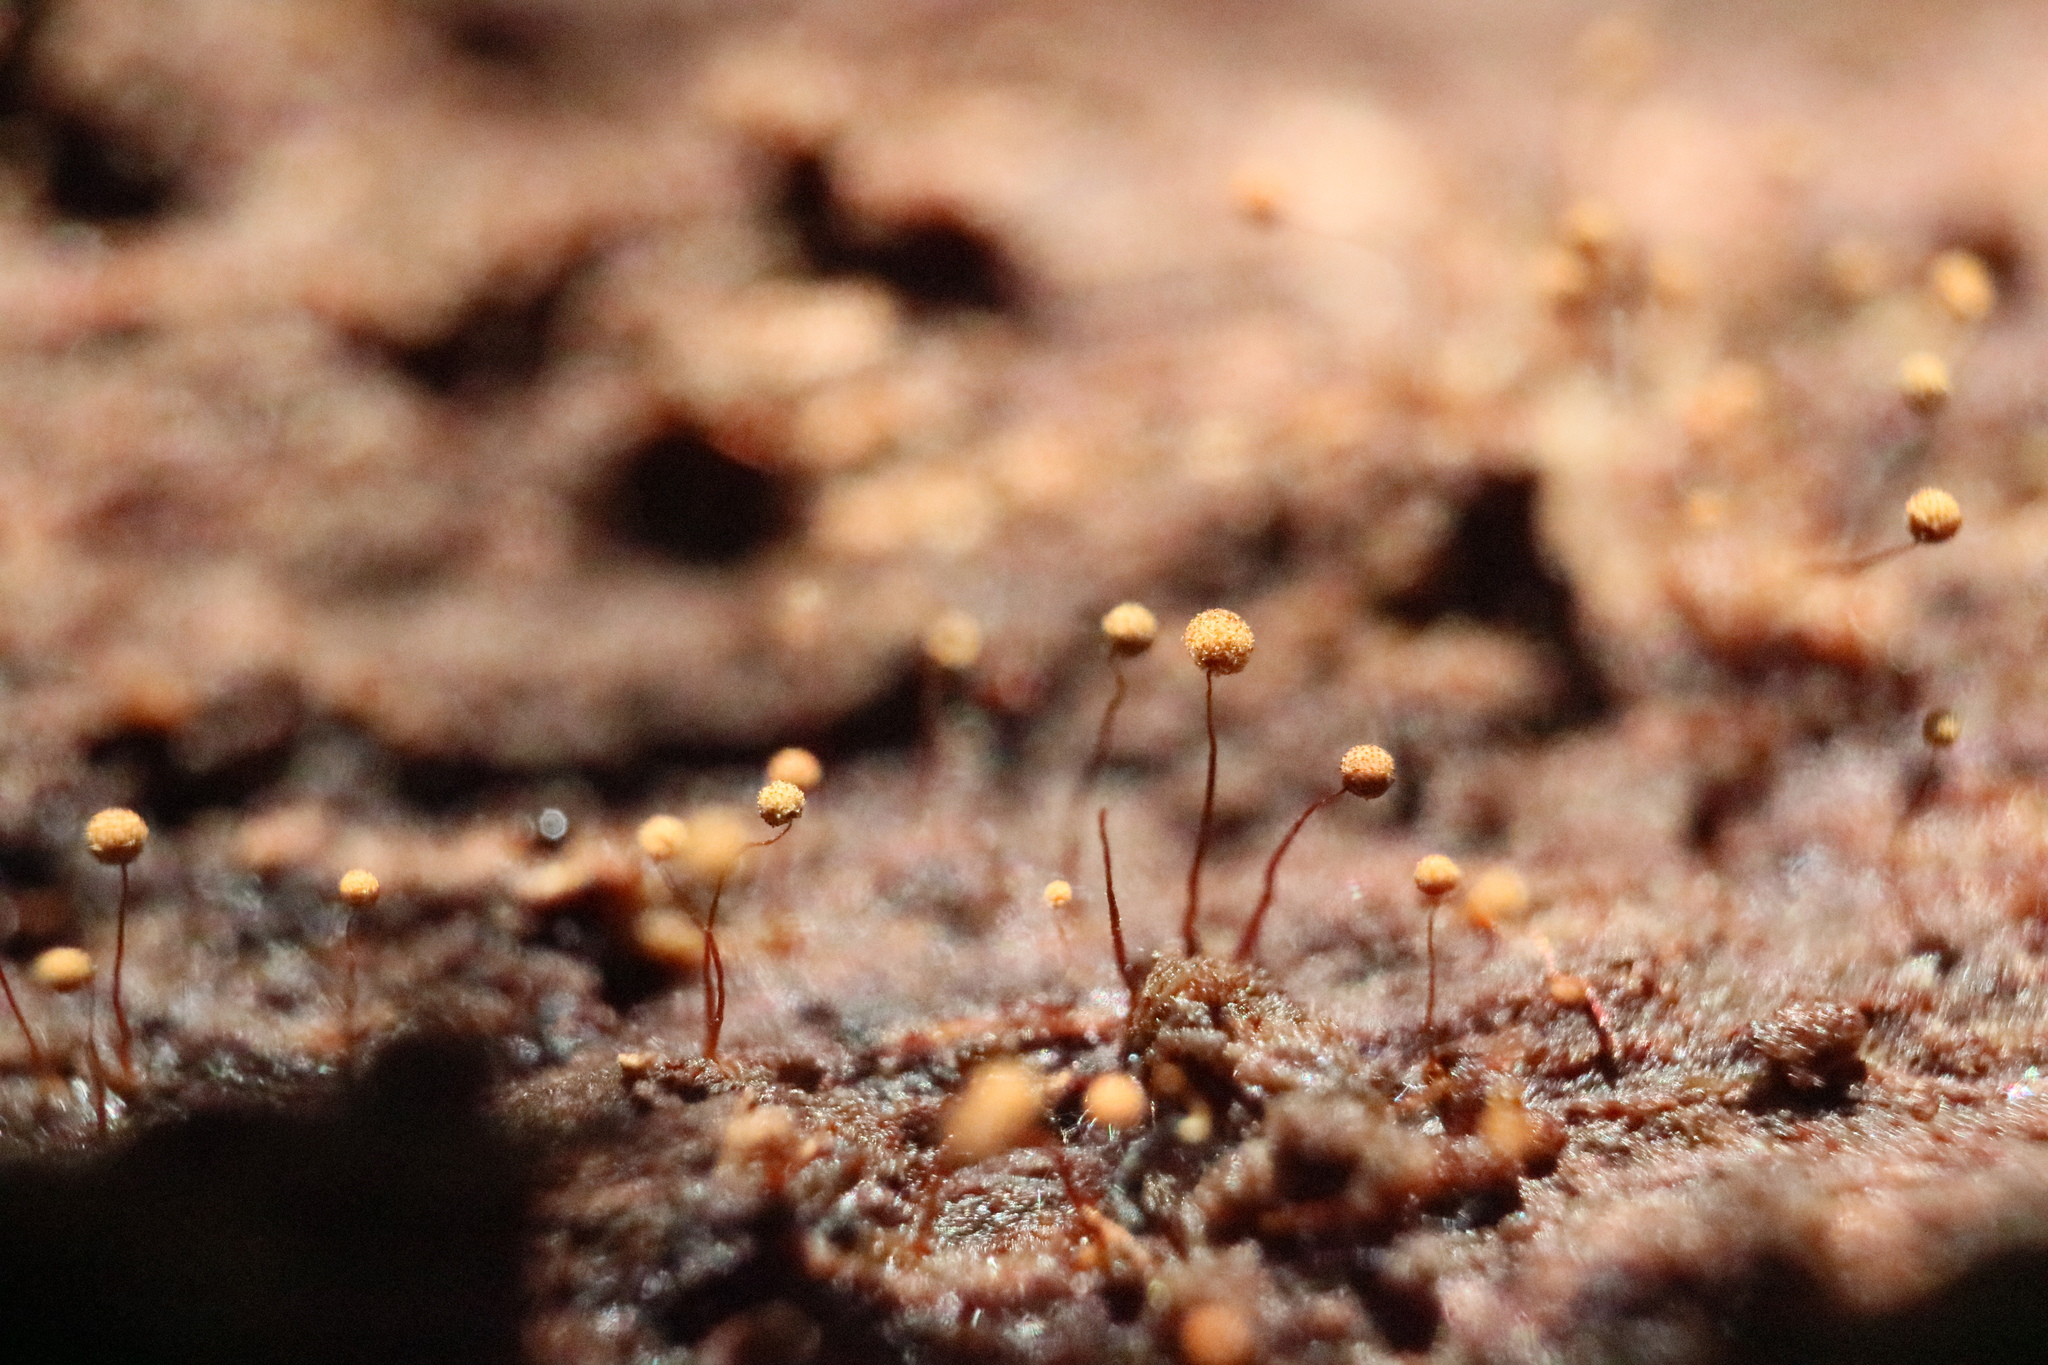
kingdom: Protozoa
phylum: Mycetozoa
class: Myxomycetes
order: Cribrariales
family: Cribrariaceae
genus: Cribraria
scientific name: Cribraria microcarpa
